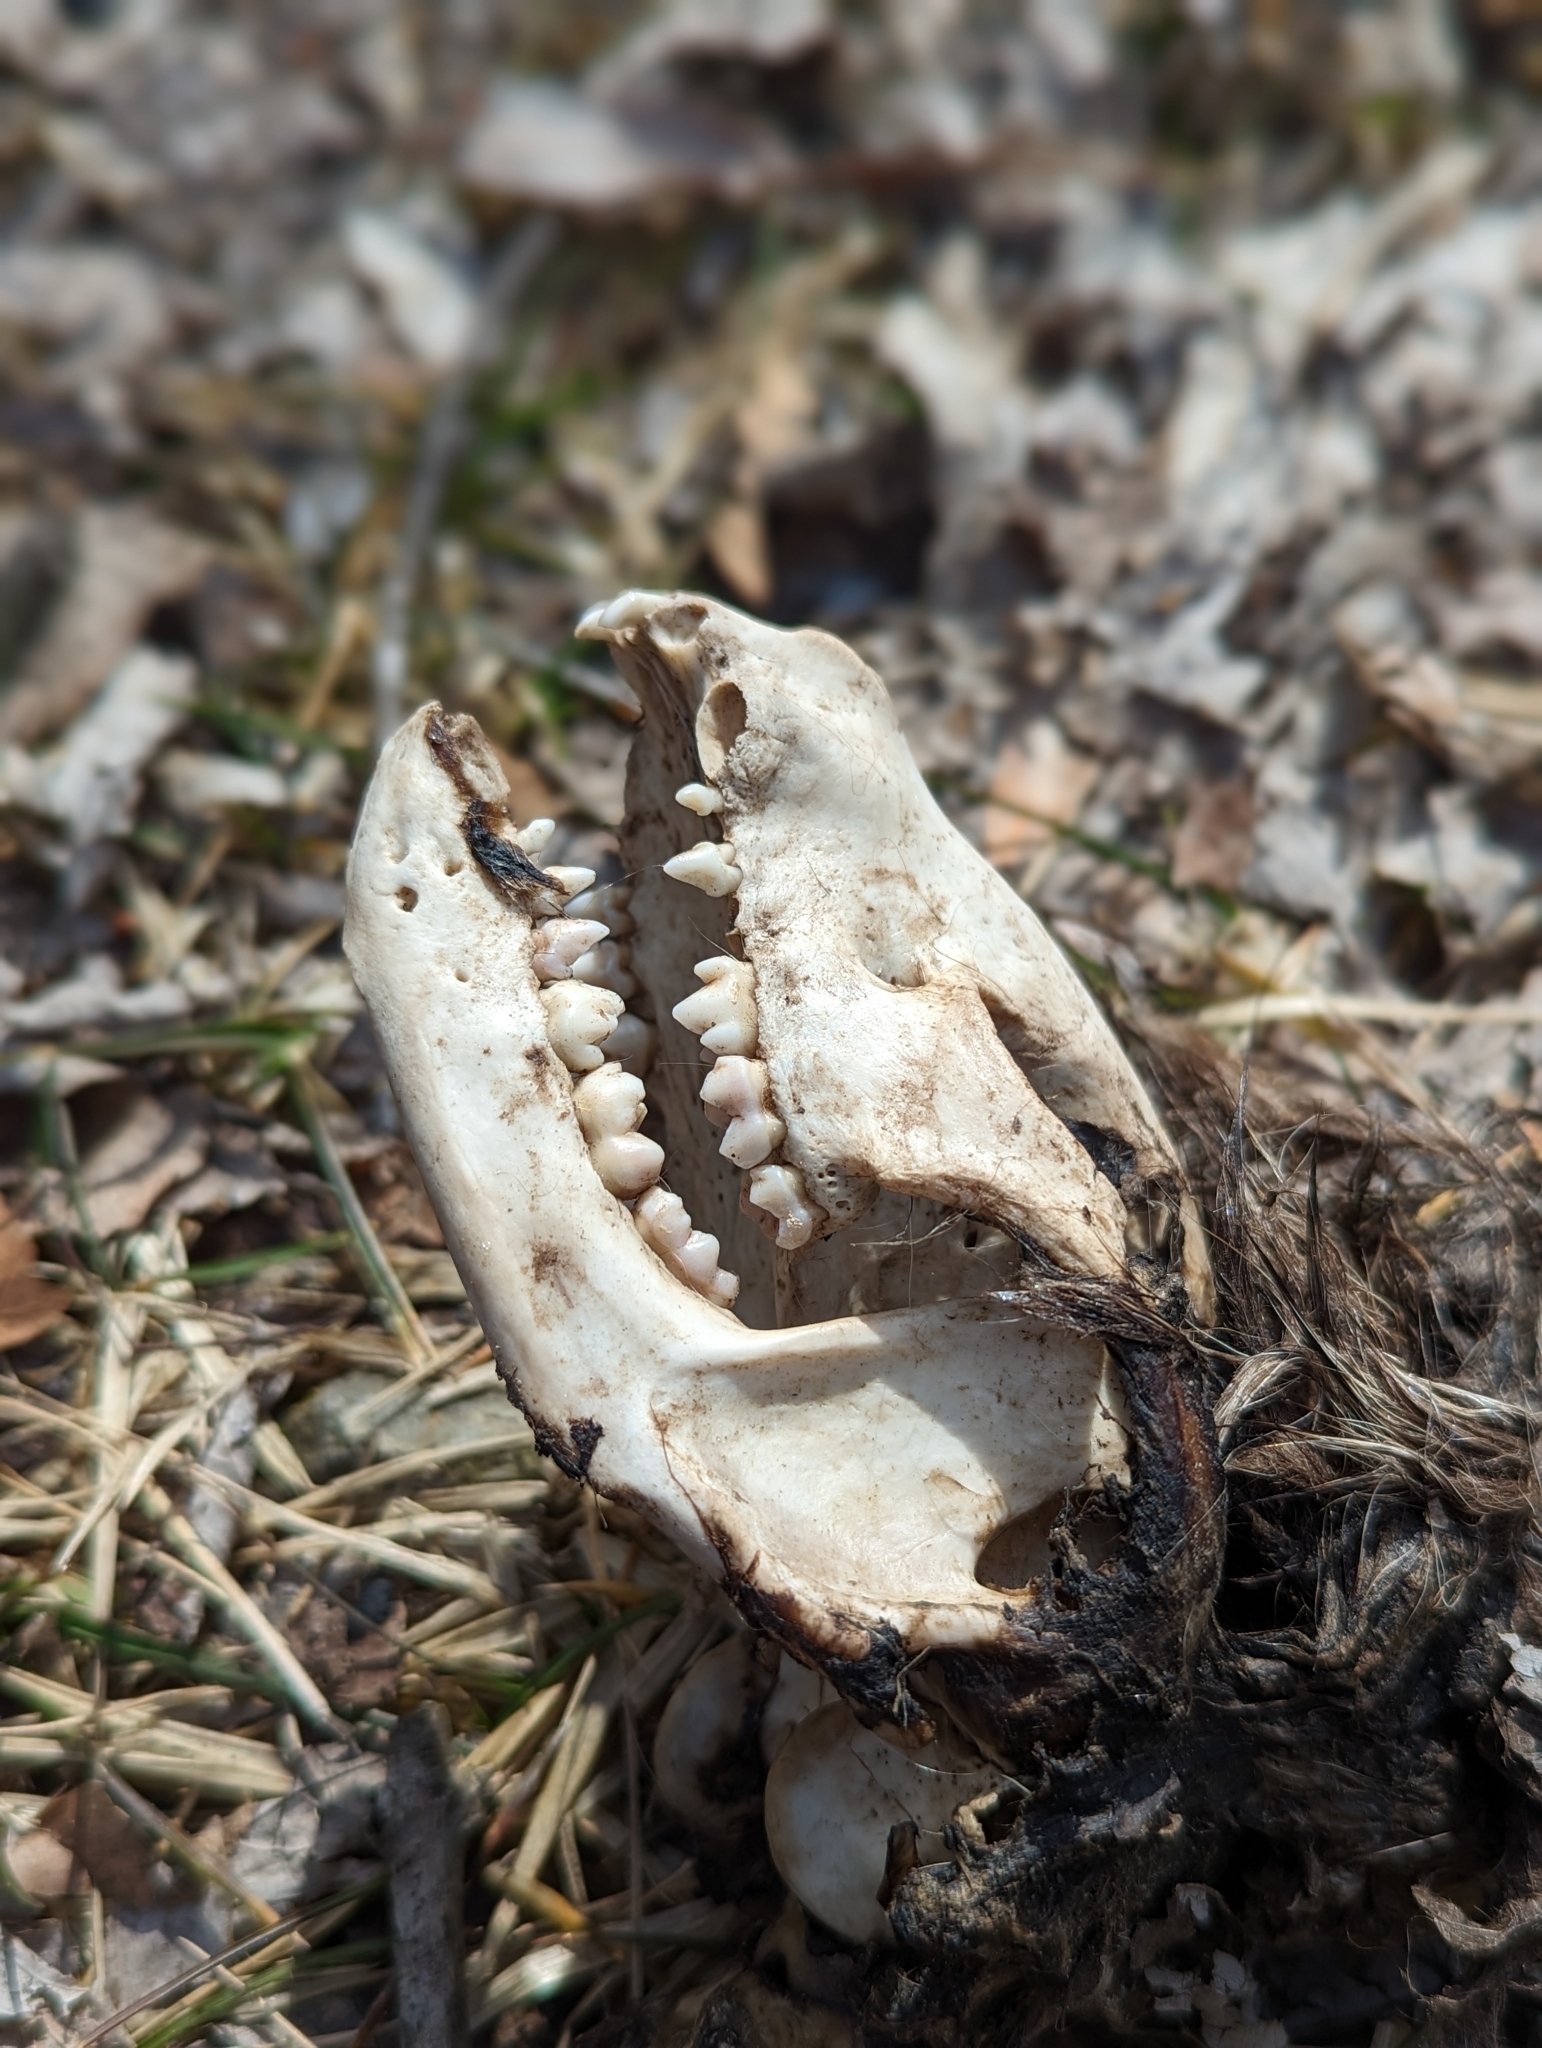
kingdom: Animalia
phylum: Chordata
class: Mammalia
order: Carnivora
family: Procyonidae
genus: Procyon
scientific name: Procyon lotor
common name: Raccoon
